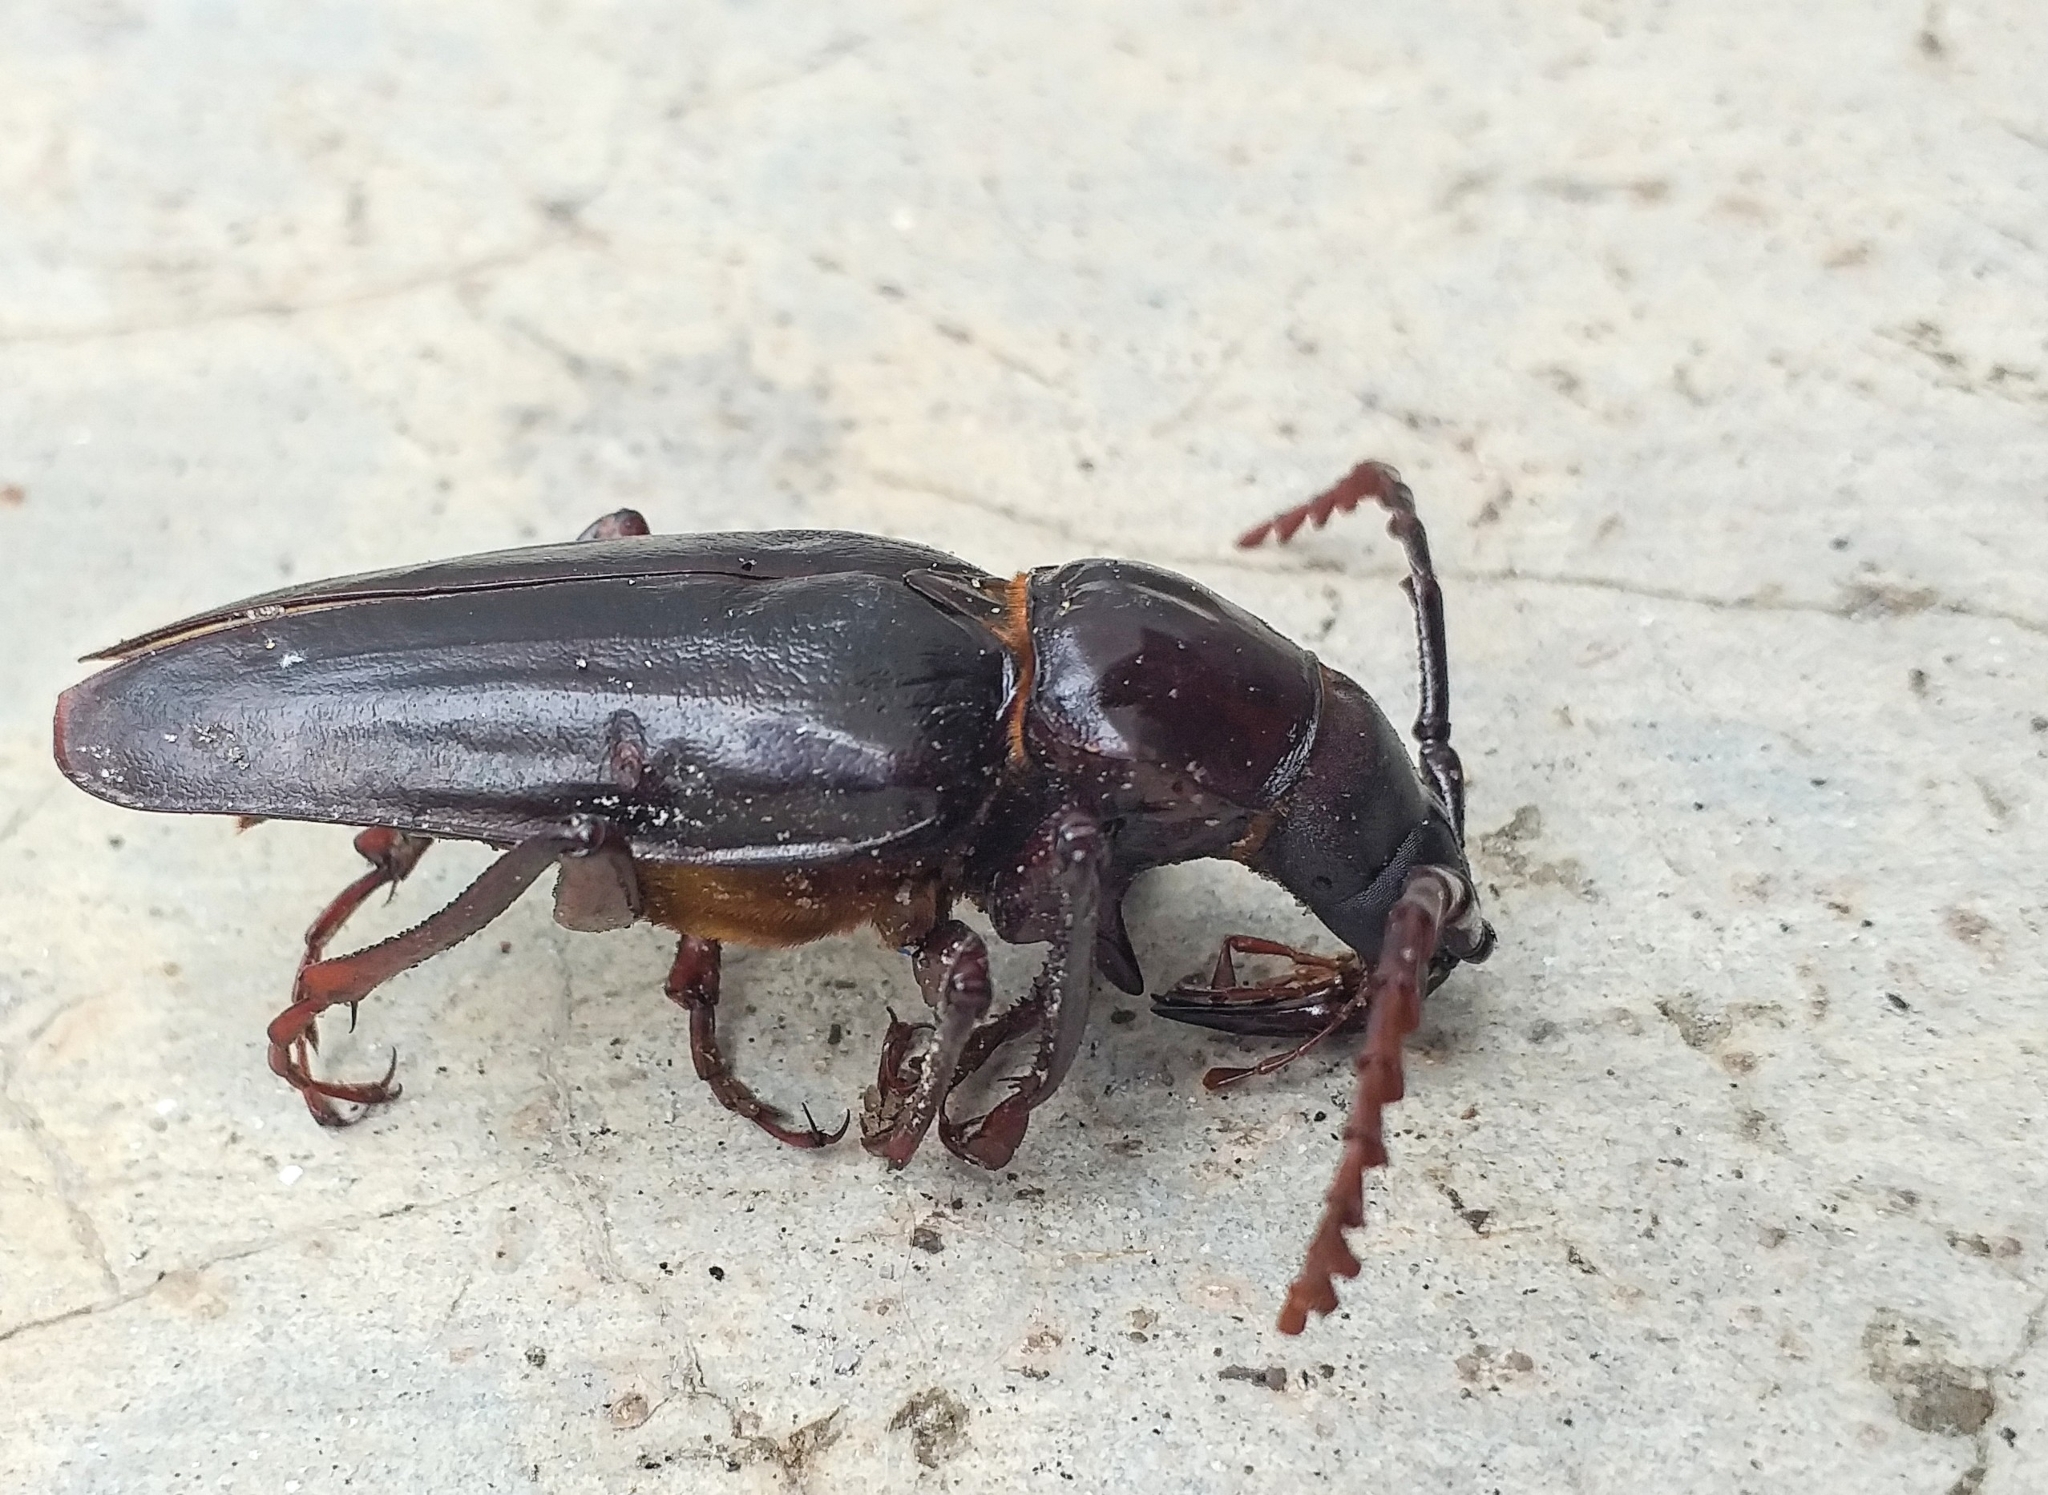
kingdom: Animalia
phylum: Arthropoda
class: Insecta
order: Coleoptera
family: Cerambycidae
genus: Dorysthenes
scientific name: Dorysthenes rostratus
